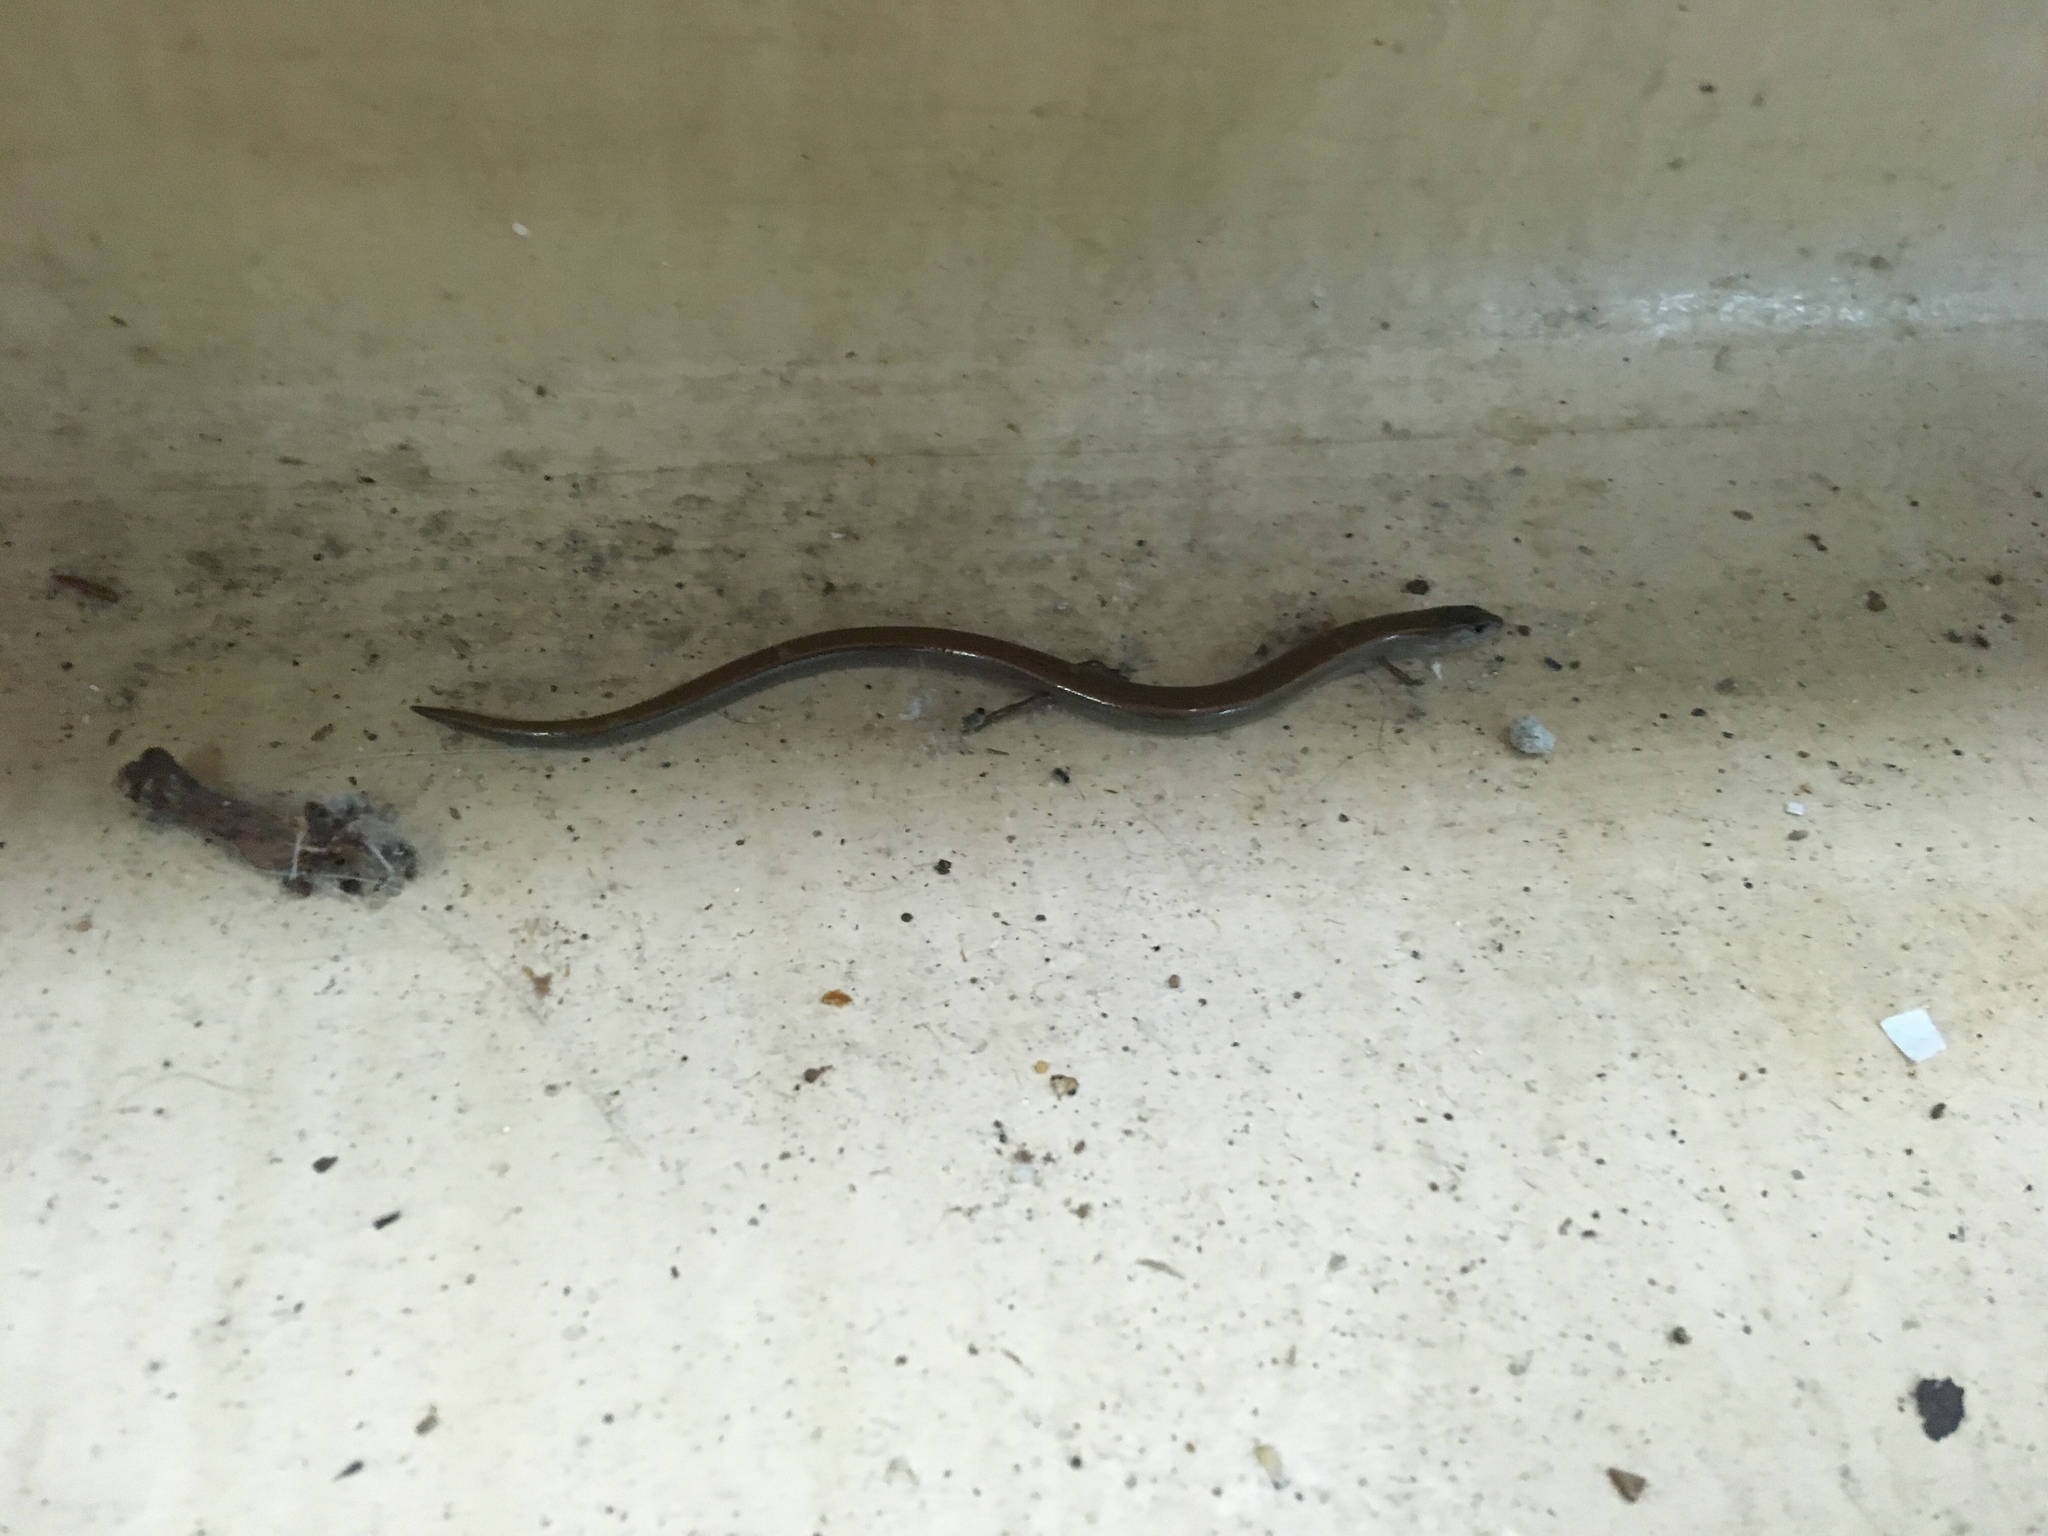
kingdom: Animalia
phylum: Chordata
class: Squamata
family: Scincidae
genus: Hemiergis
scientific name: Hemiergis quadrilineatus
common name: Two-toed earless skink
